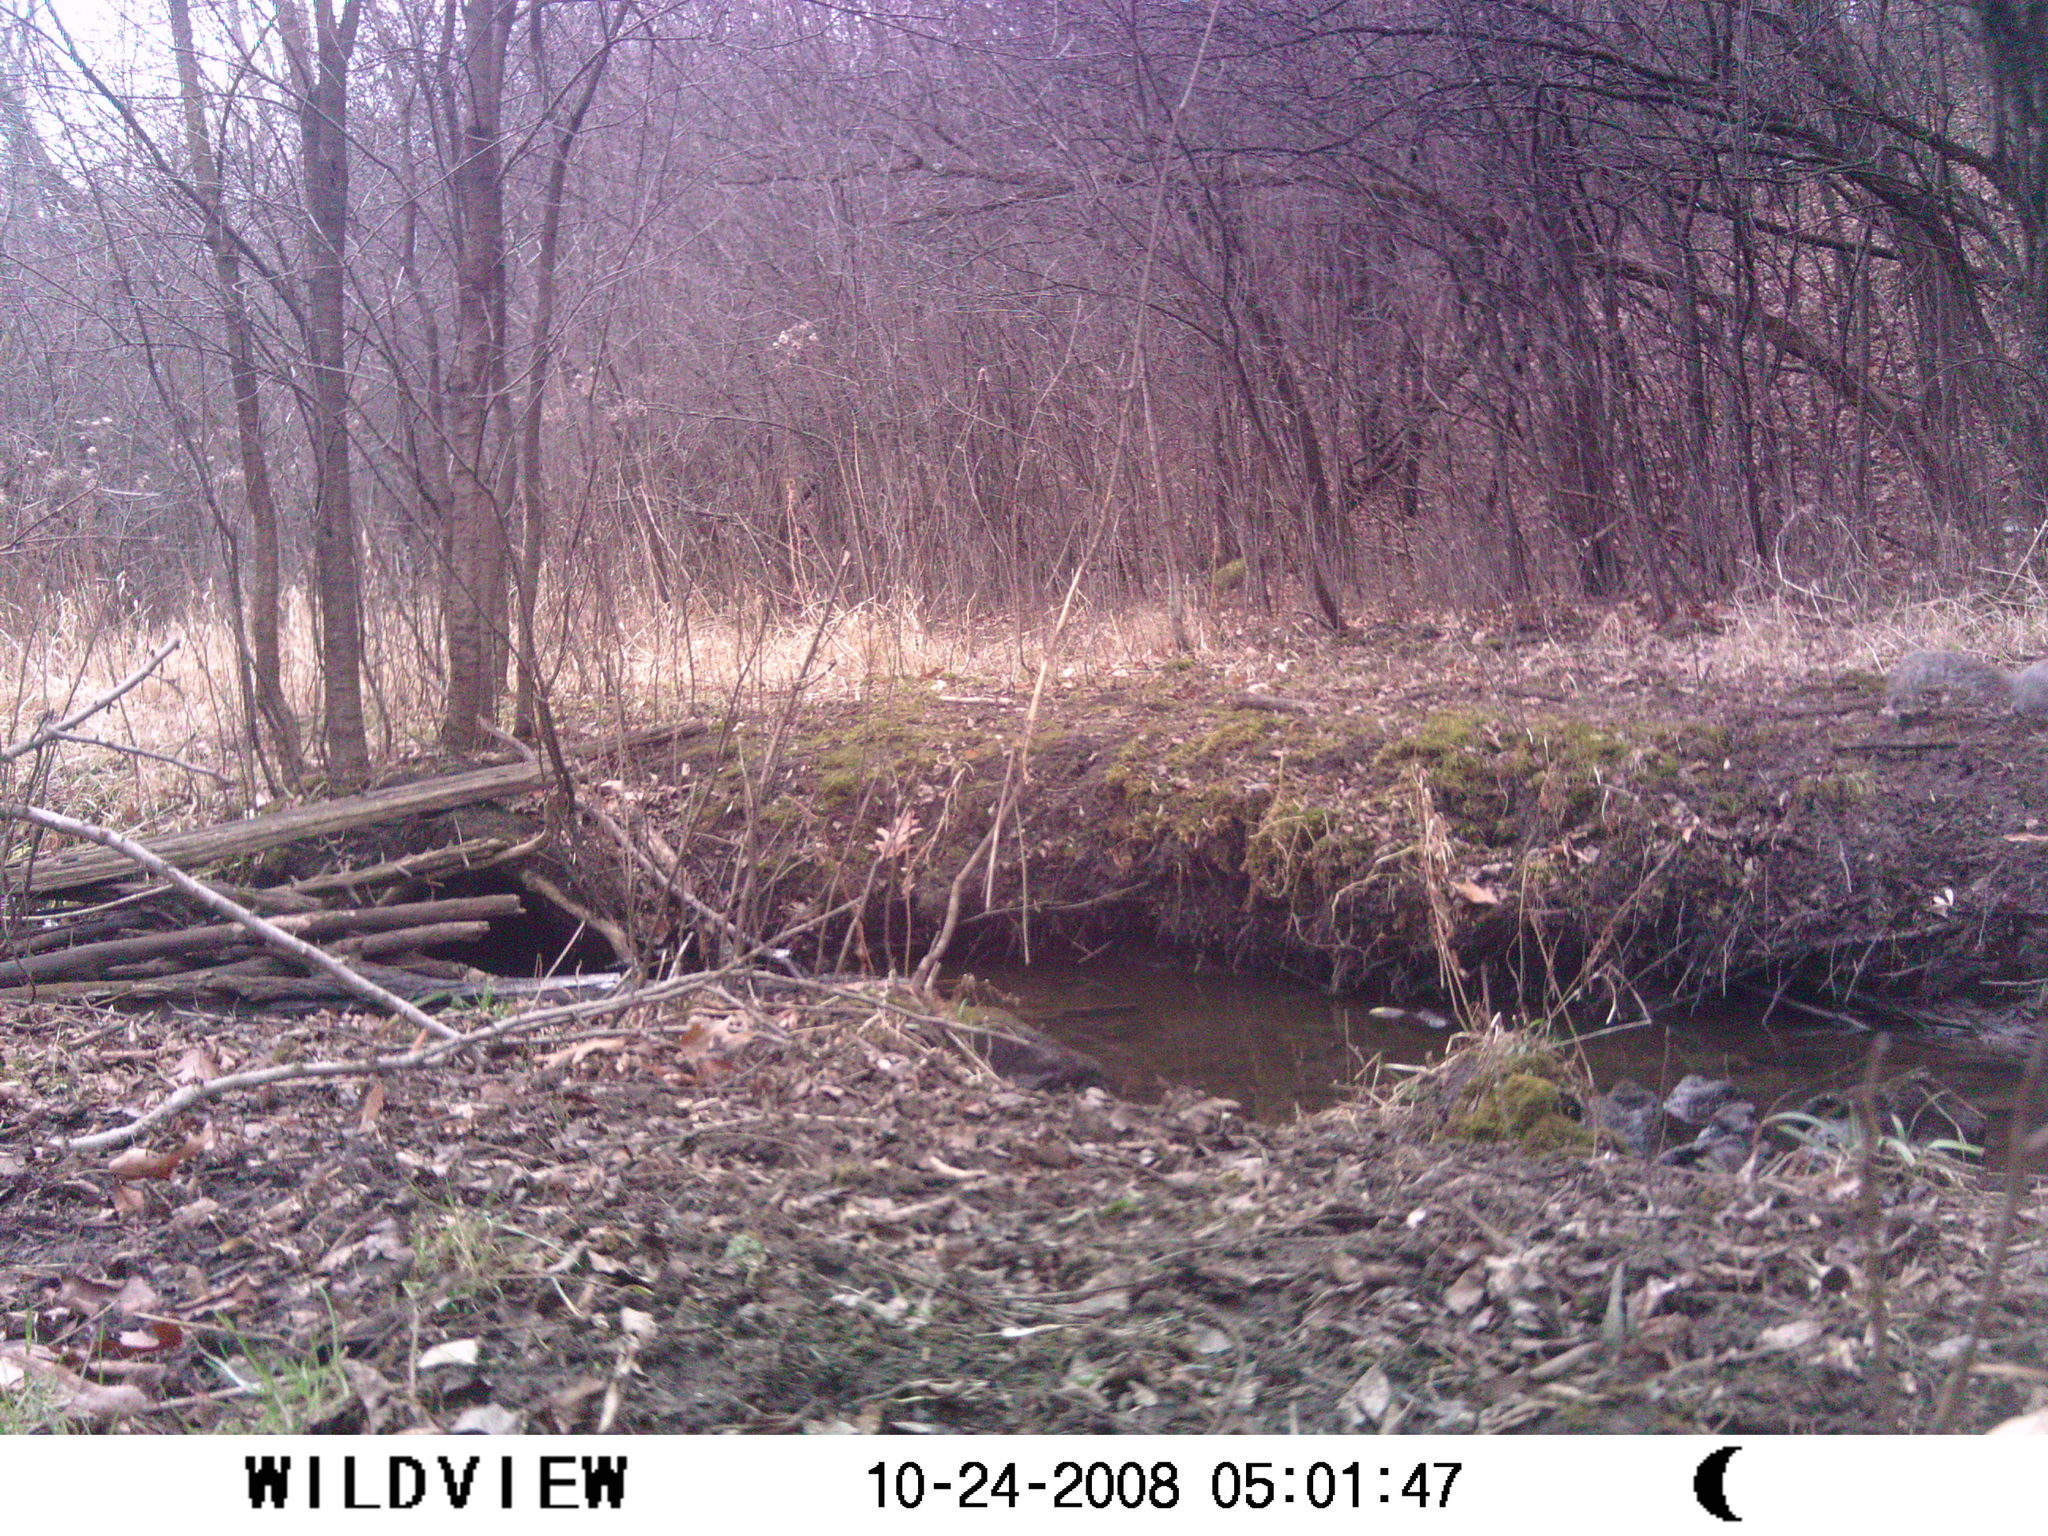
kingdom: Animalia
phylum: Chordata
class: Mammalia
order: Rodentia
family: Sciuridae
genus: Sciurus
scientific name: Sciurus carolinensis
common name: Eastern gray squirrel
